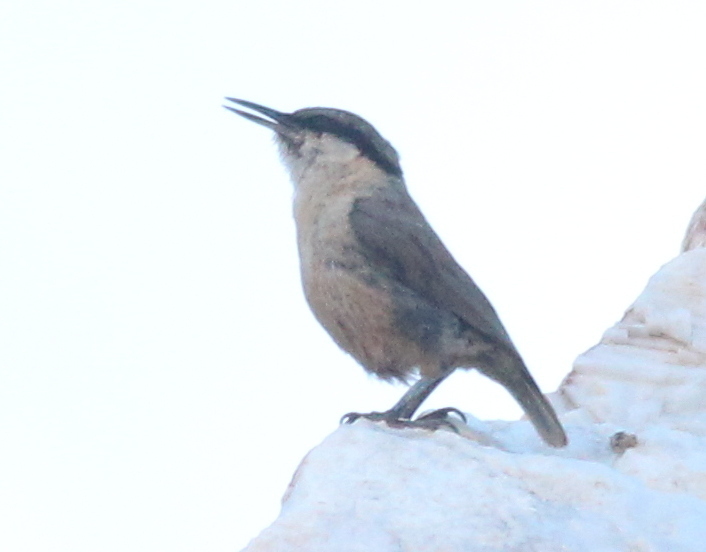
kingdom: Animalia
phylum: Chordata
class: Aves
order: Passeriformes
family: Sittidae
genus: Sitta
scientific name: Sitta neumayer
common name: Western rock nuthatch
